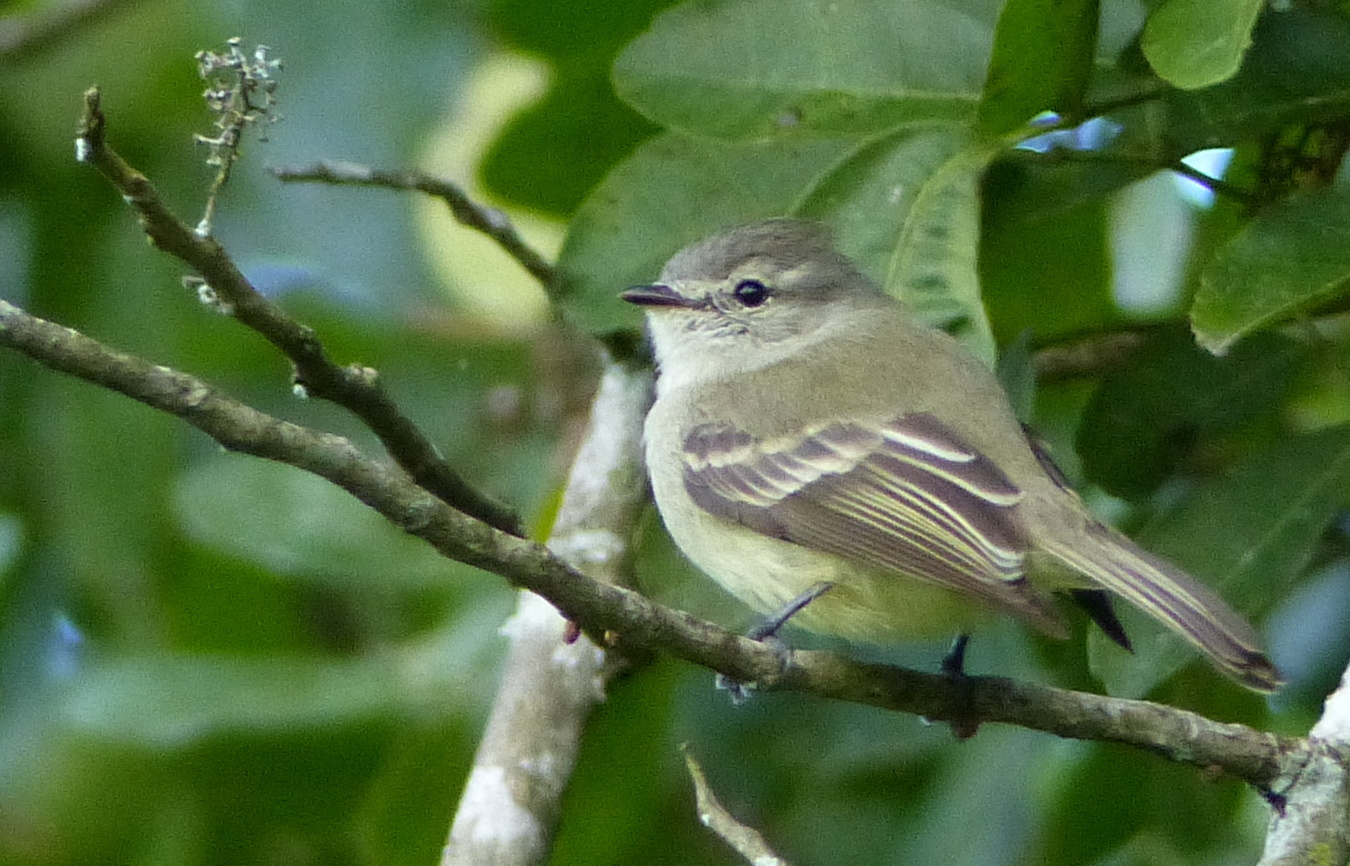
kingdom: Animalia
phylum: Chordata
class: Aves
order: Passeriformes
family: Tyrannidae
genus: Phyllomyias
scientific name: Phyllomyias fasciatus
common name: Planalto tyrannulet
